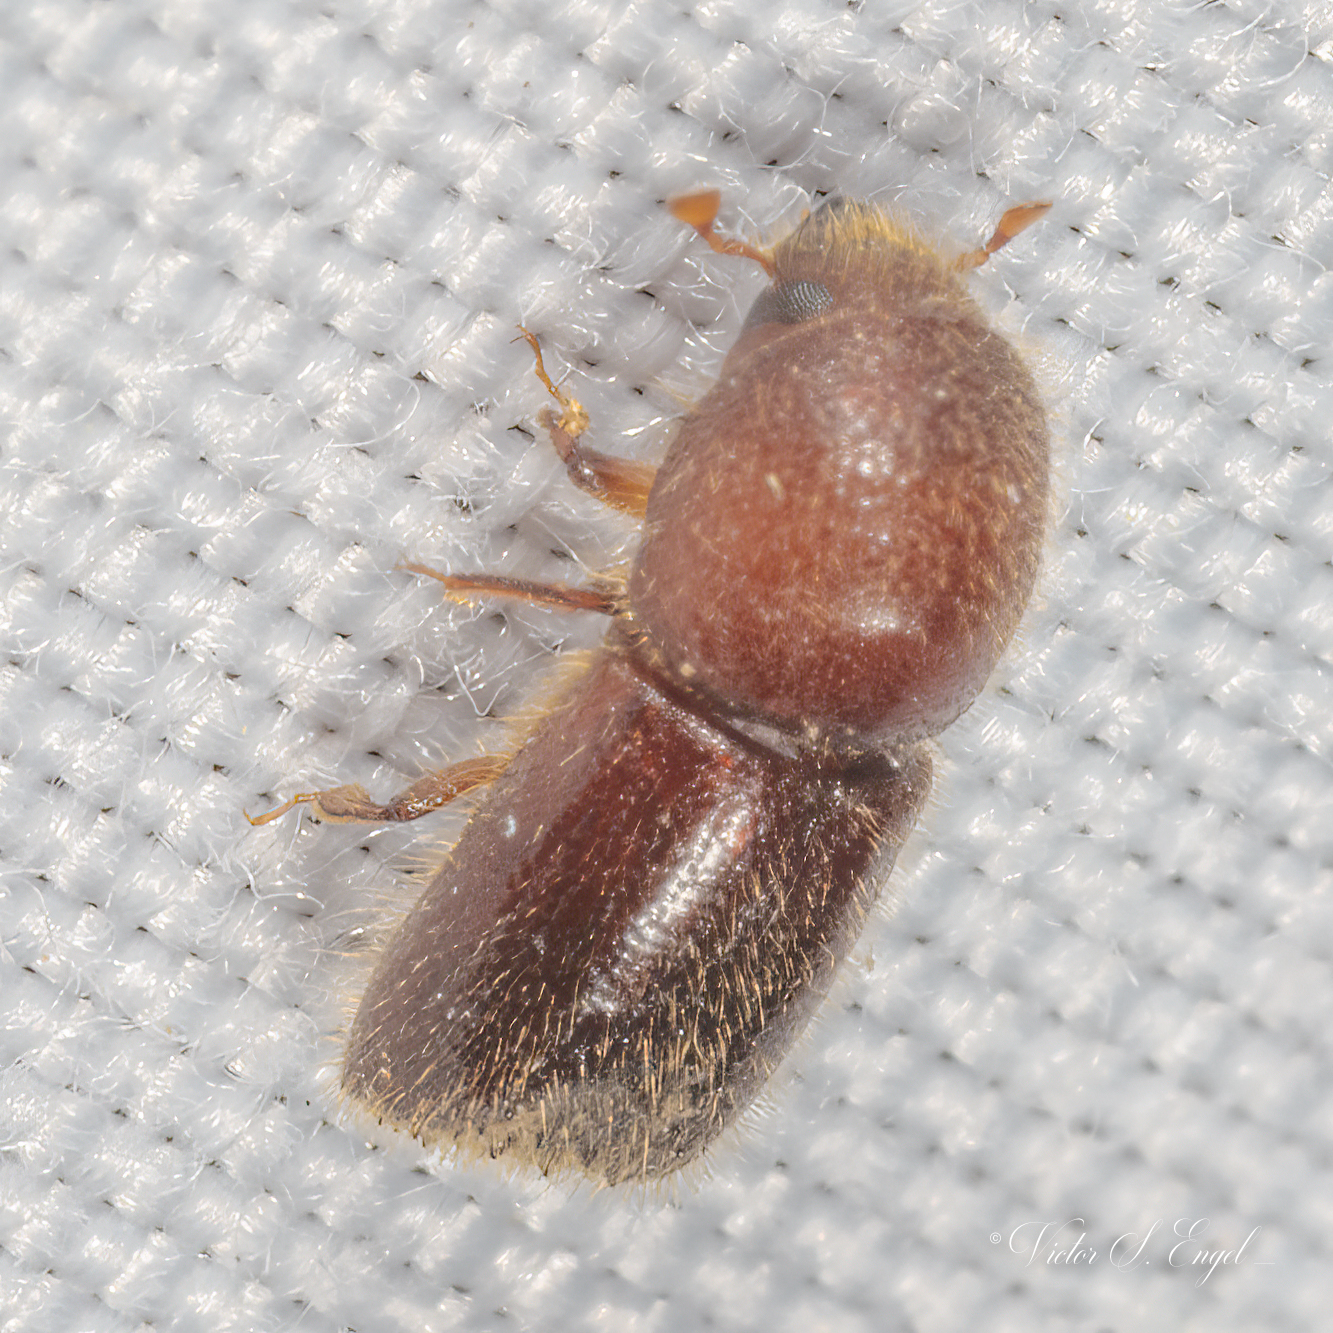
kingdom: Animalia
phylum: Arthropoda
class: Insecta
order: Coleoptera
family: Curculionidae
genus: Xyleborus
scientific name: Xyleborus horridus
